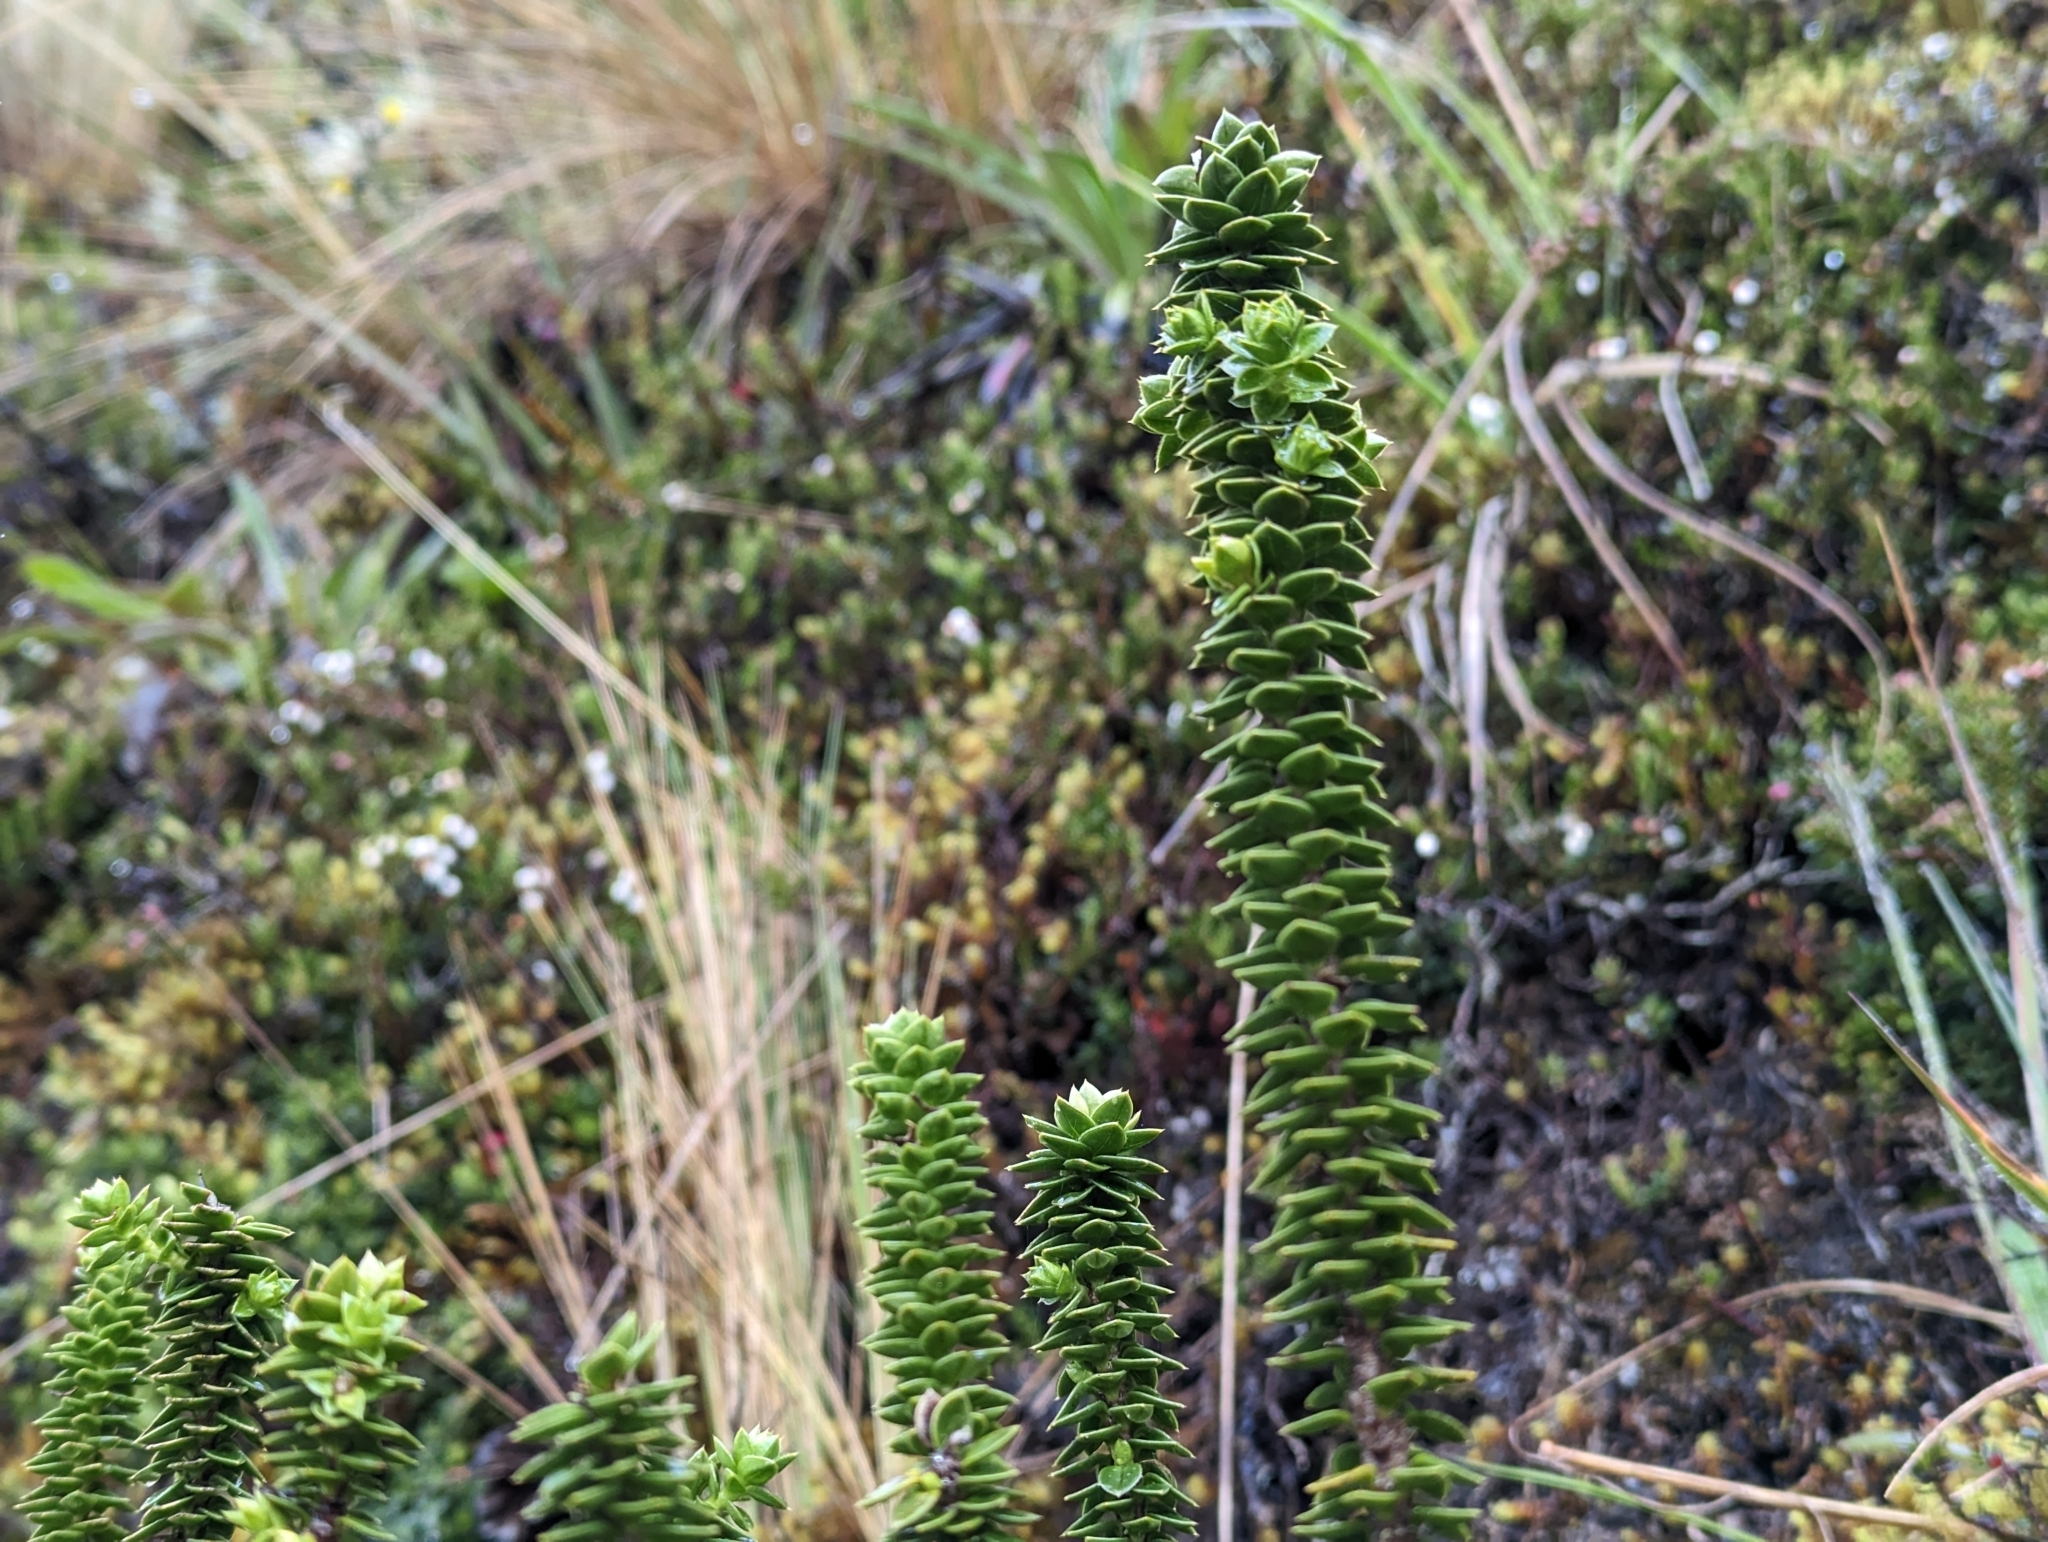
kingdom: Plantae
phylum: Tracheophyta
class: Magnoliopsida
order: Asterales
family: Asteraceae
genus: Chuquiraga
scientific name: Chuquiraga jussieui
